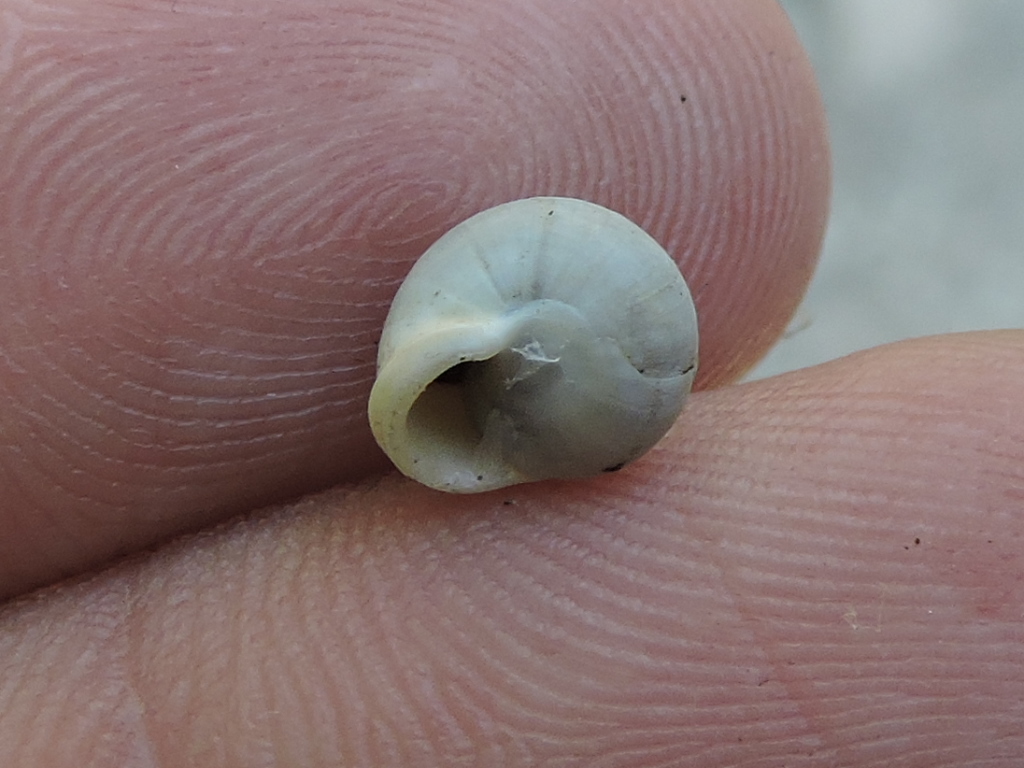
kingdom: Animalia
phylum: Mollusca
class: Gastropoda
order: Cycloneritida
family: Helicinidae
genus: Helicina
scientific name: Helicina orbiculata
